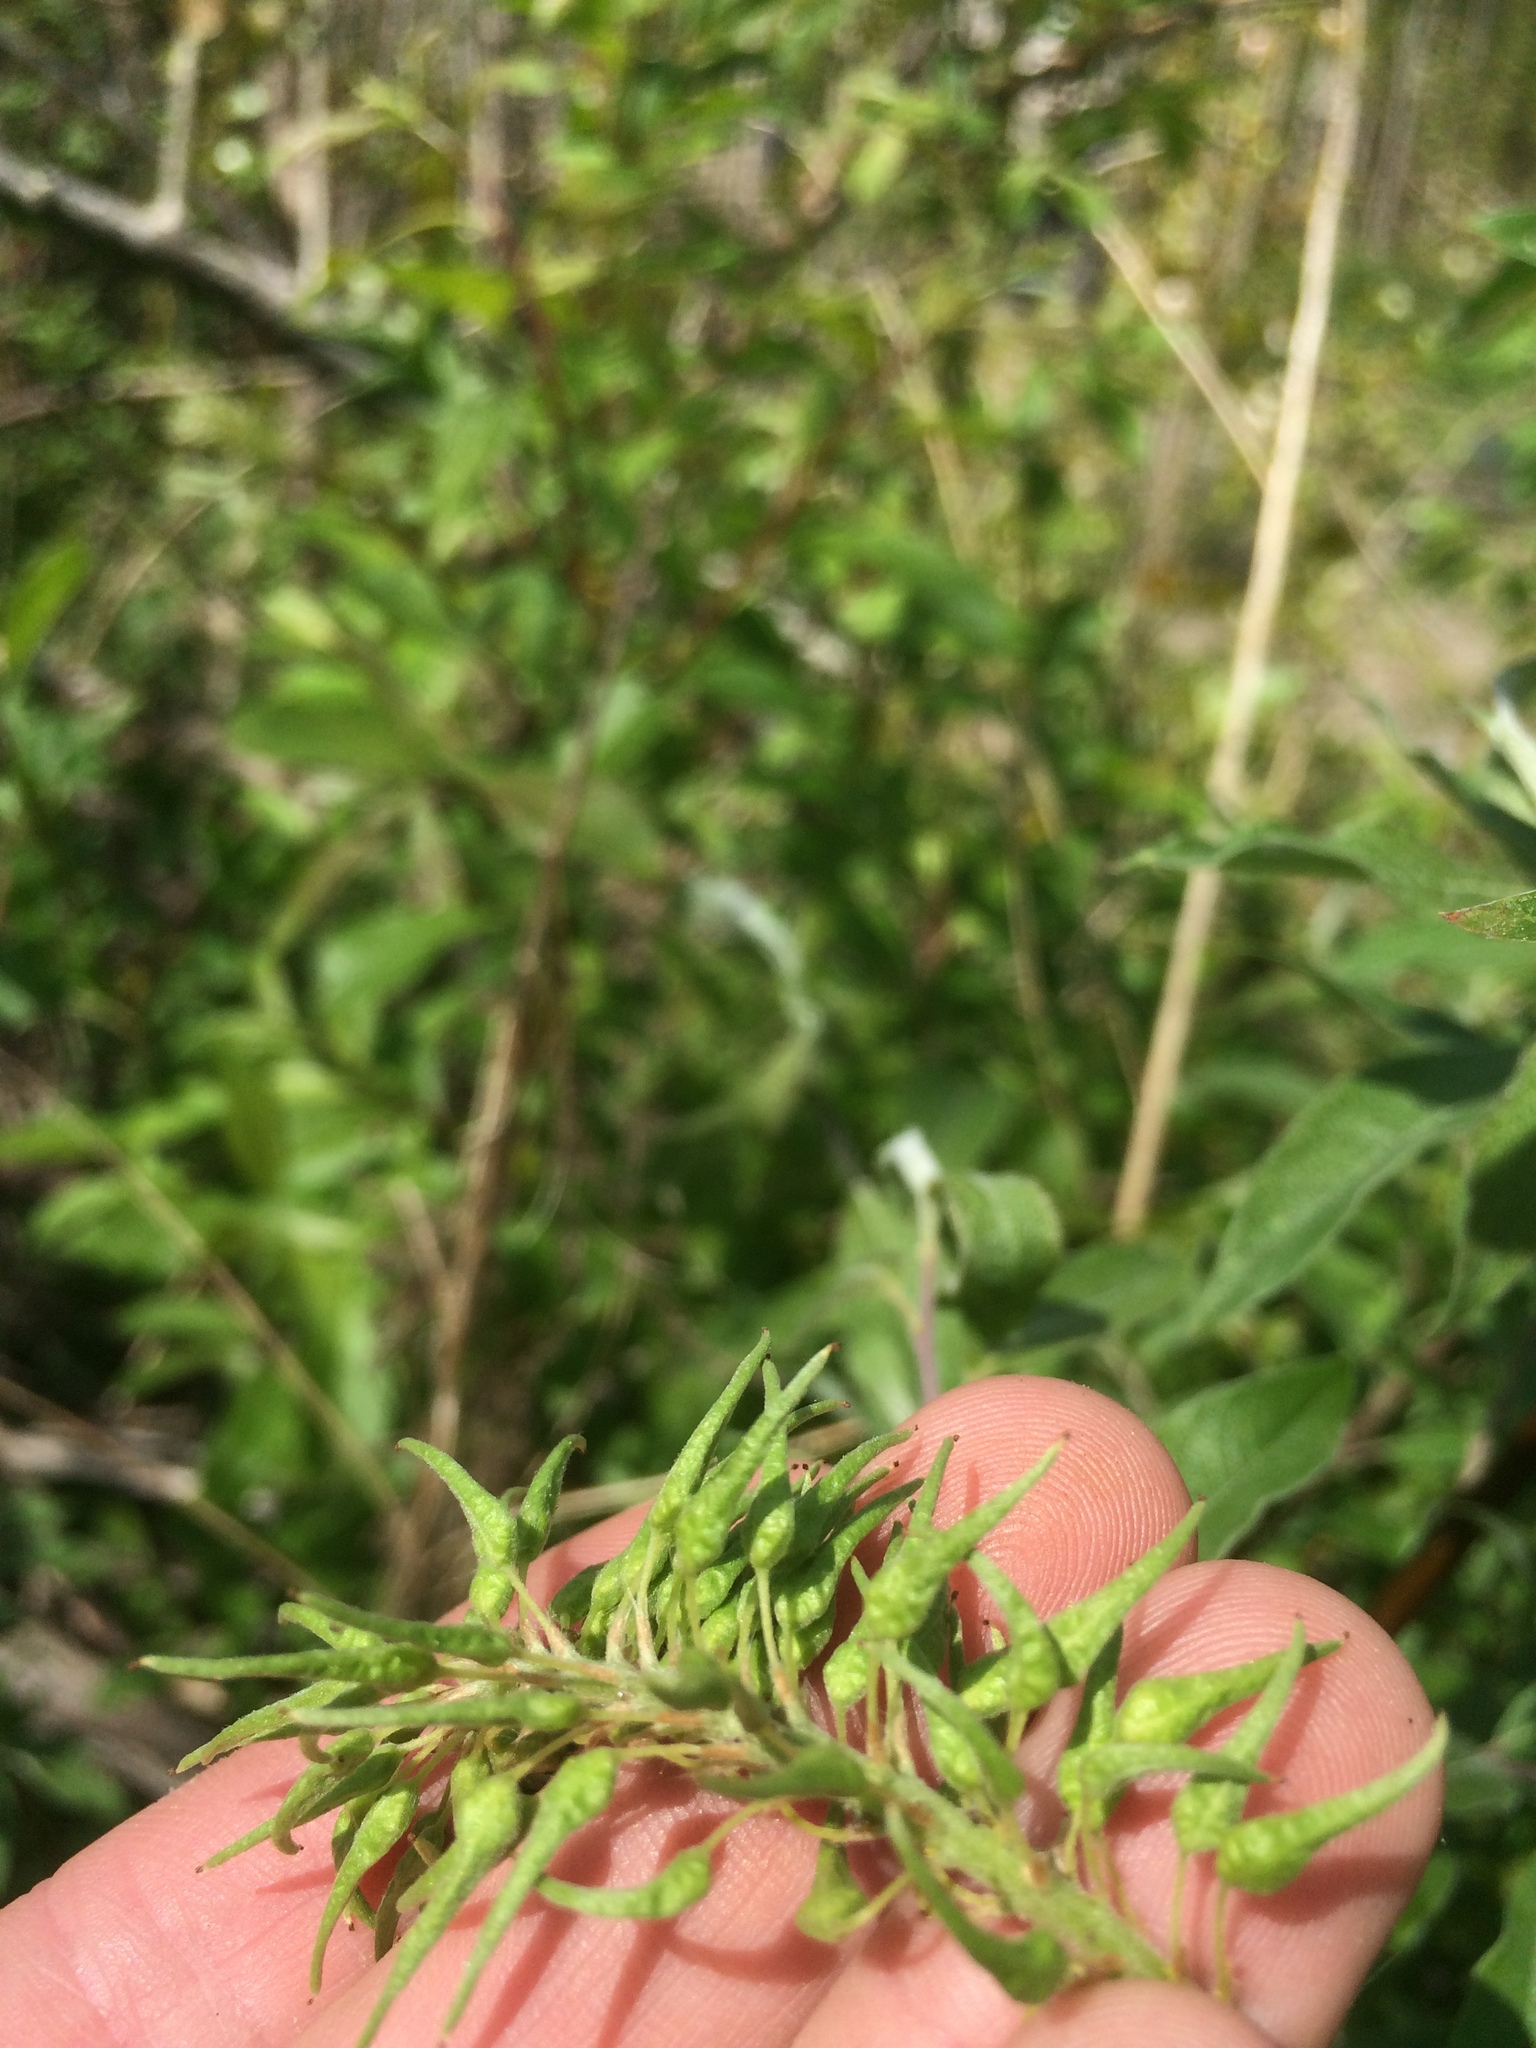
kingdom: Plantae
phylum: Tracheophyta
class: Magnoliopsida
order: Malpighiales
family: Salicaceae
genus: Salix
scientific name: Salix bebbiana
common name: Bebb's willow
